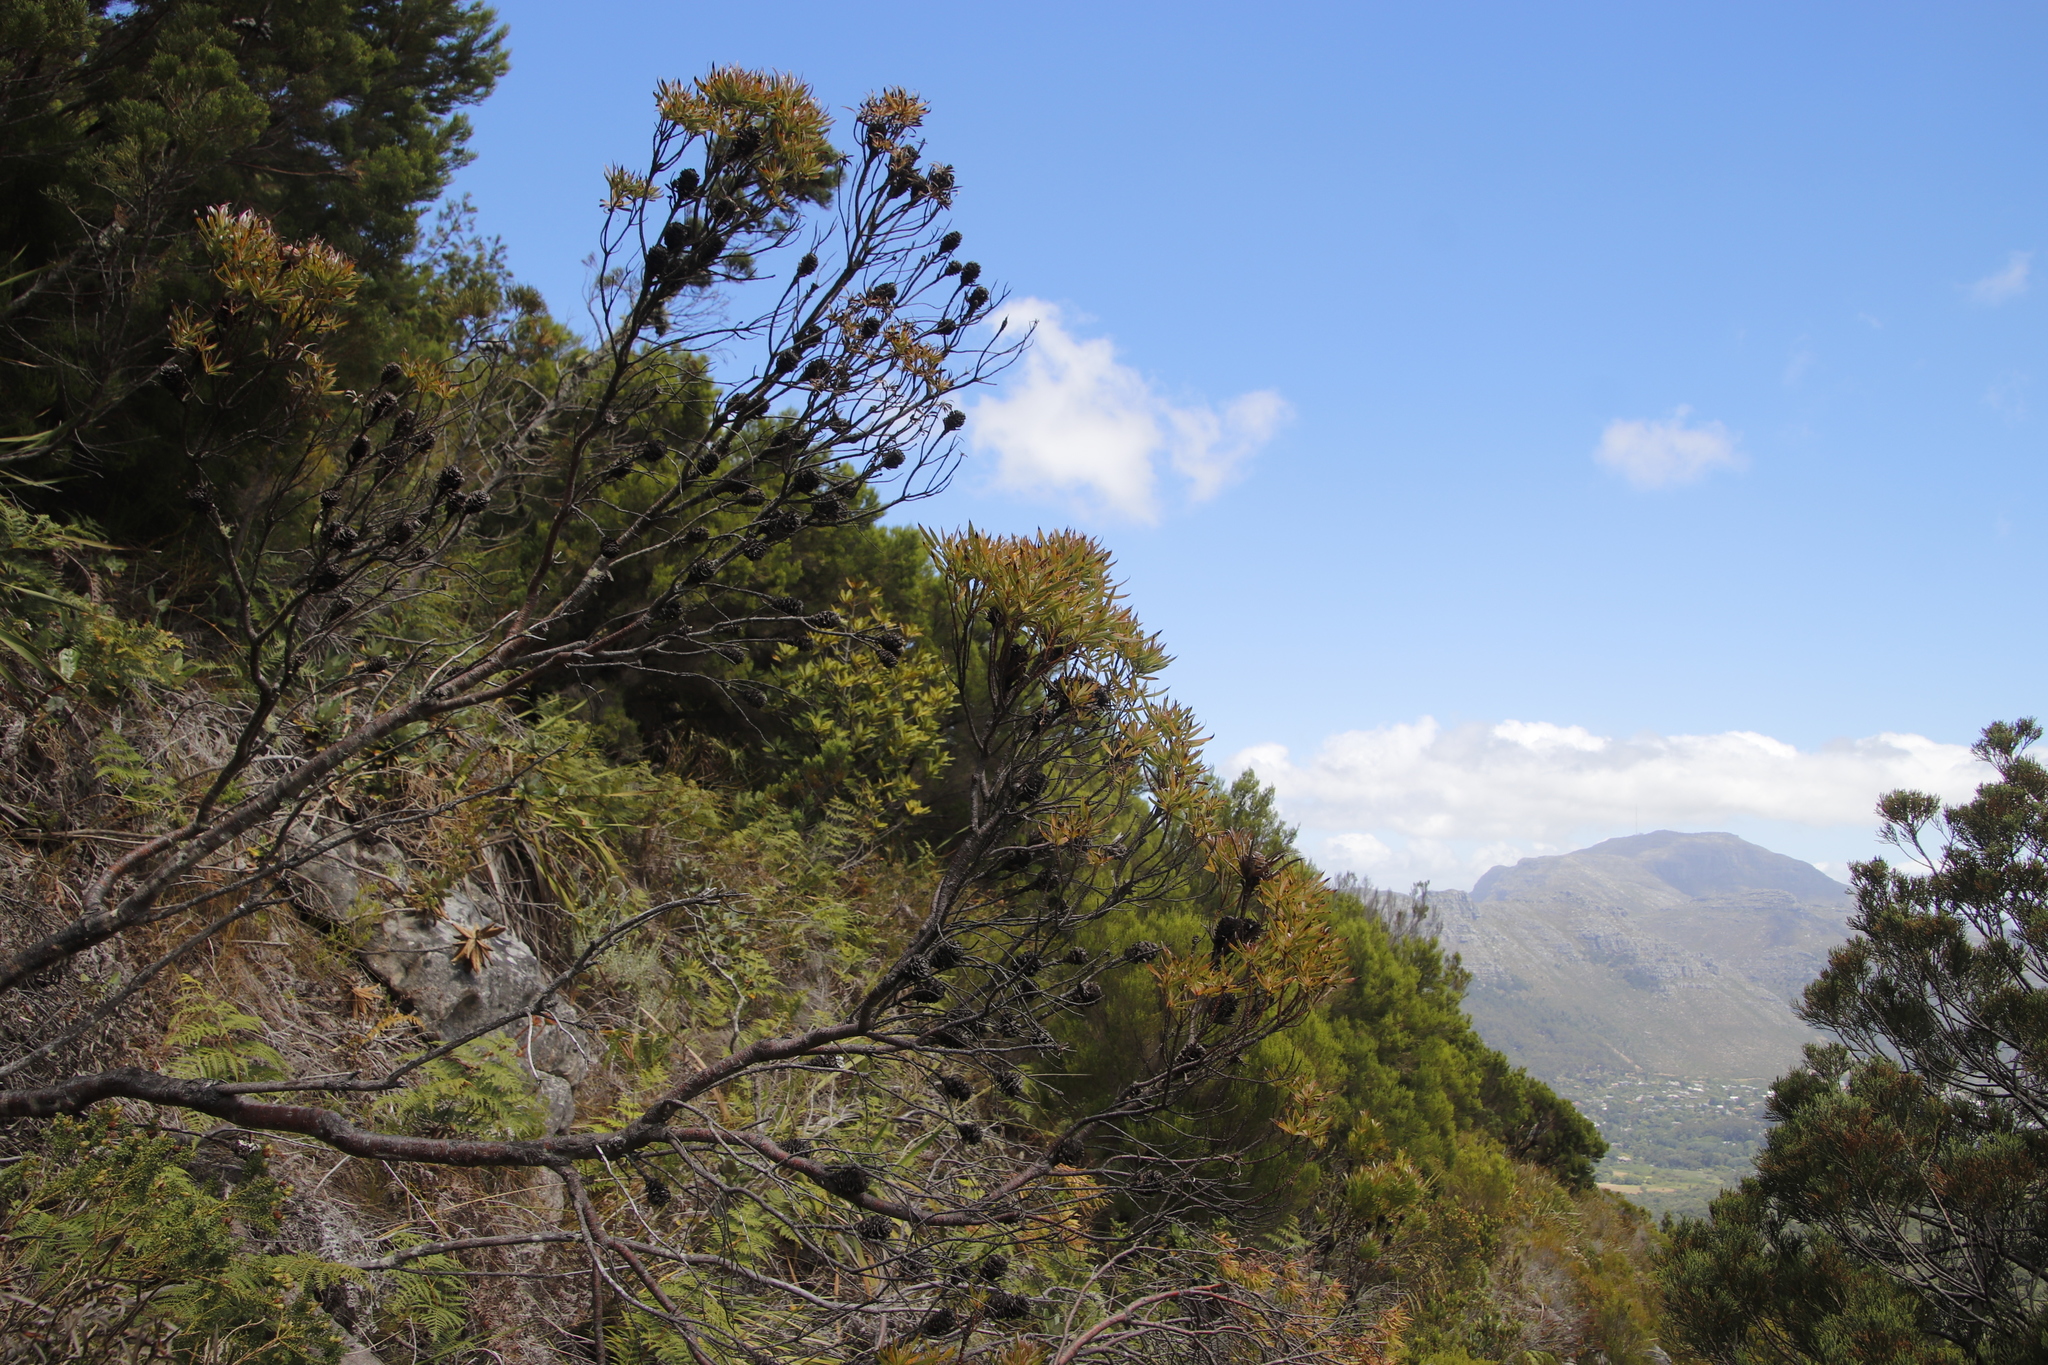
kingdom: Plantae
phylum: Tracheophyta
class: Magnoliopsida
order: Proteales
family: Proteaceae
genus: Leucadendron
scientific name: Leucadendron xanthoconus
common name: Sickle-leaf conebush
